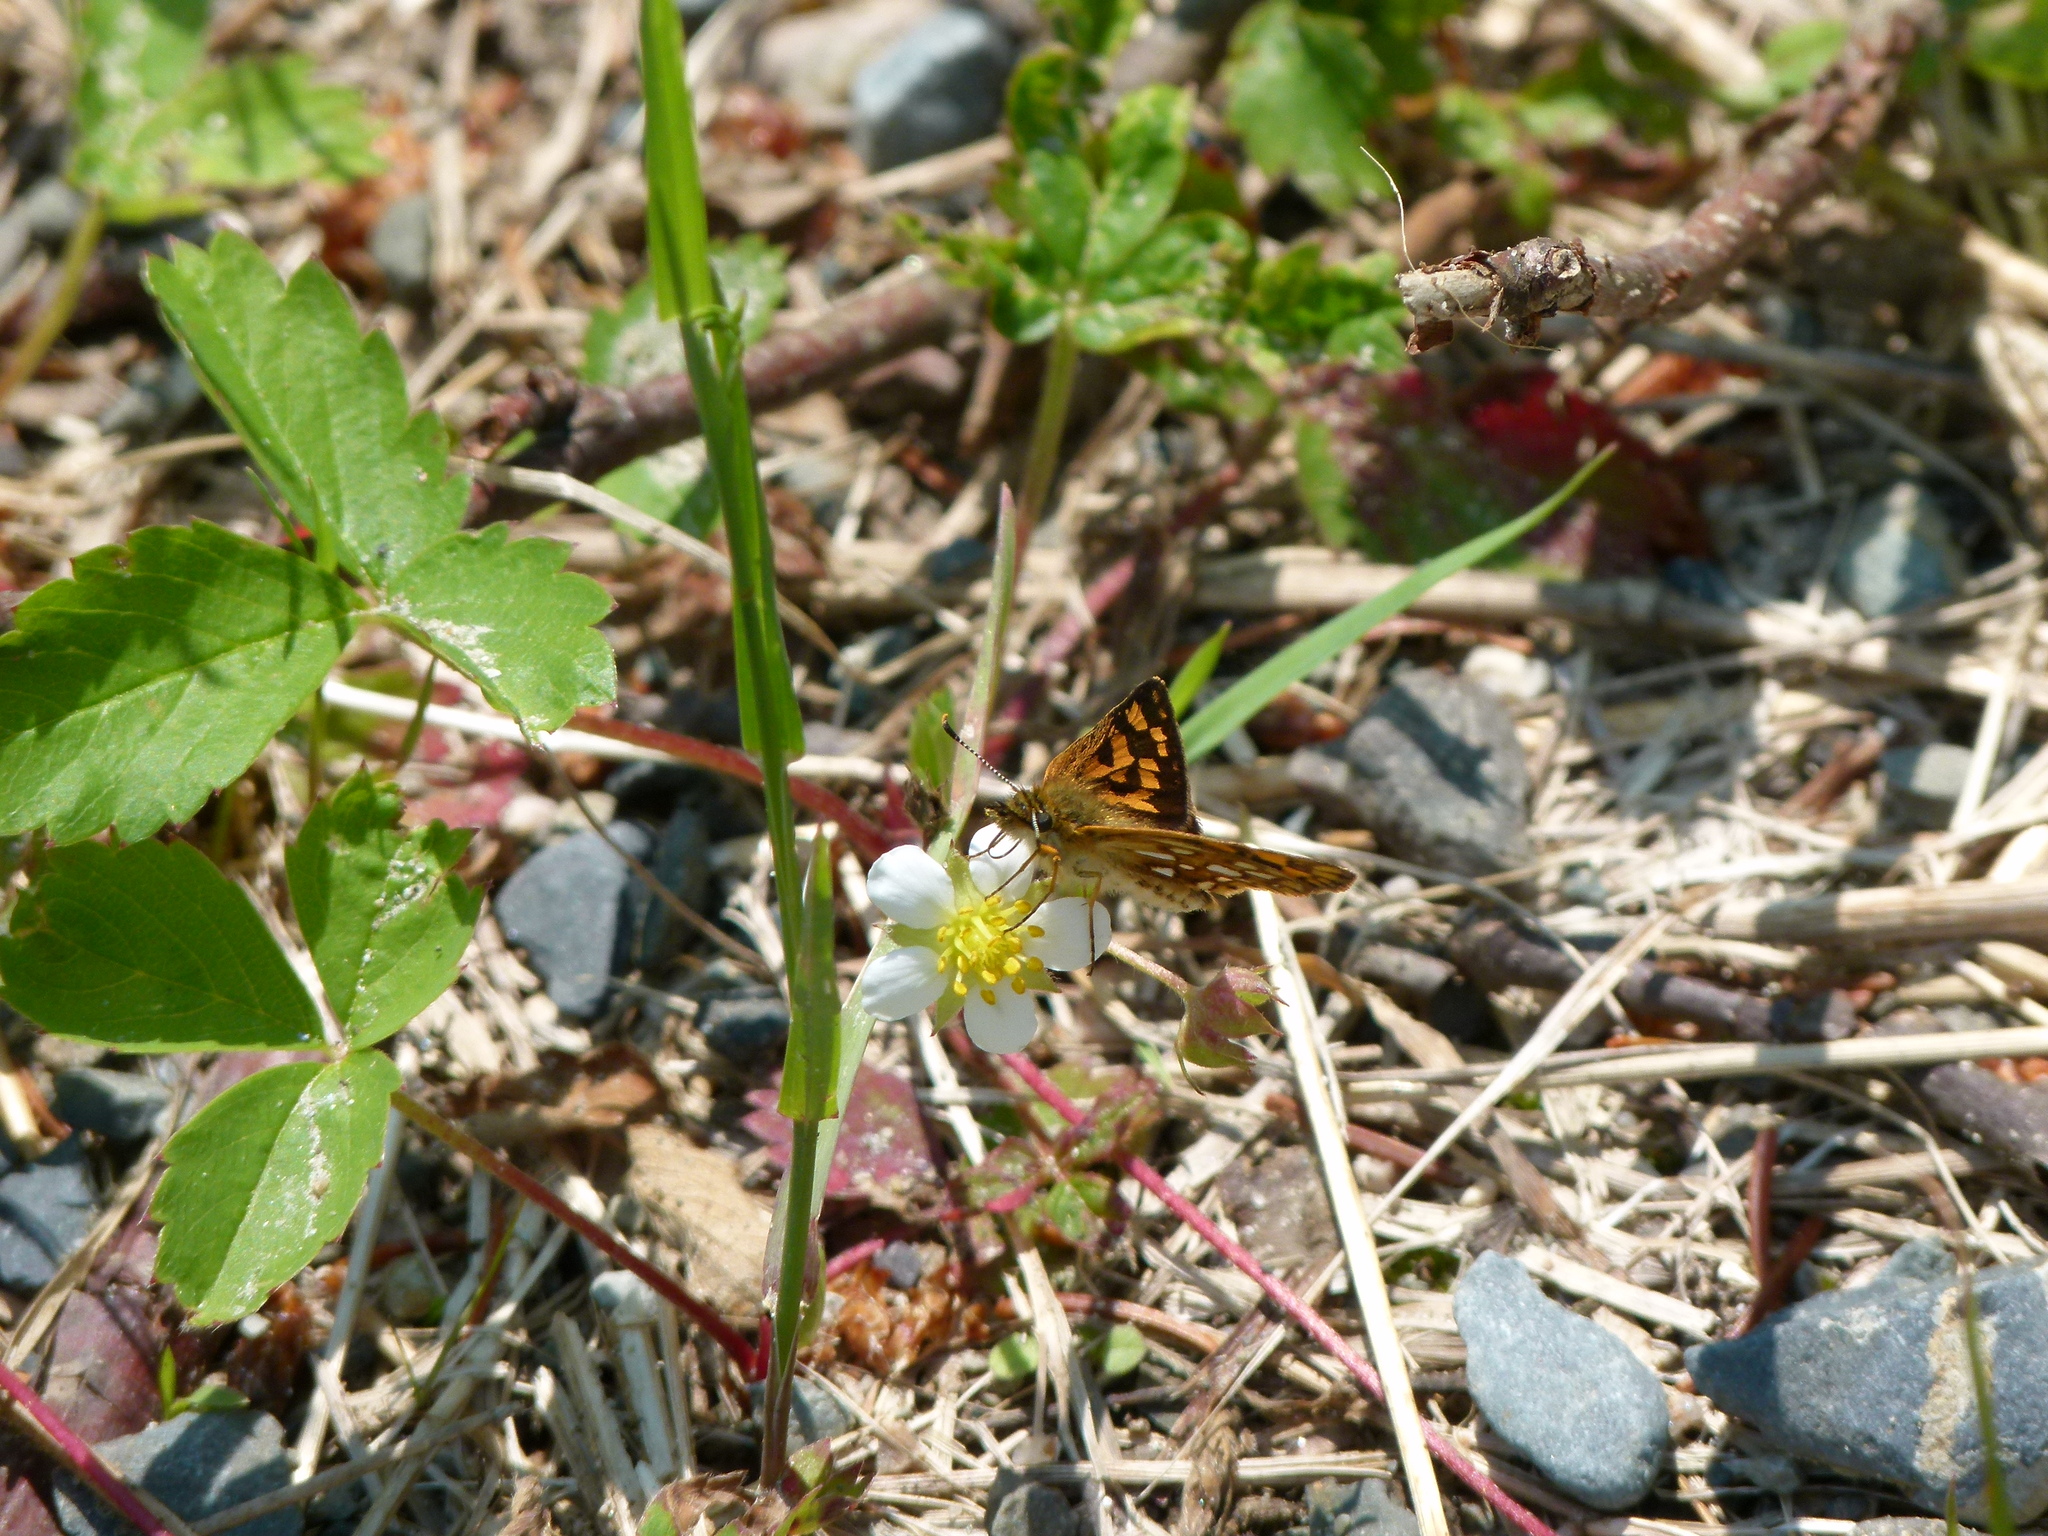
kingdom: Animalia
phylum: Arthropoda
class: Insecta
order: Lepidoptera
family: Hesperiidae
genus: Carterocephalus
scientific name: Carterocephalus mandan
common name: Arctic skipperling
